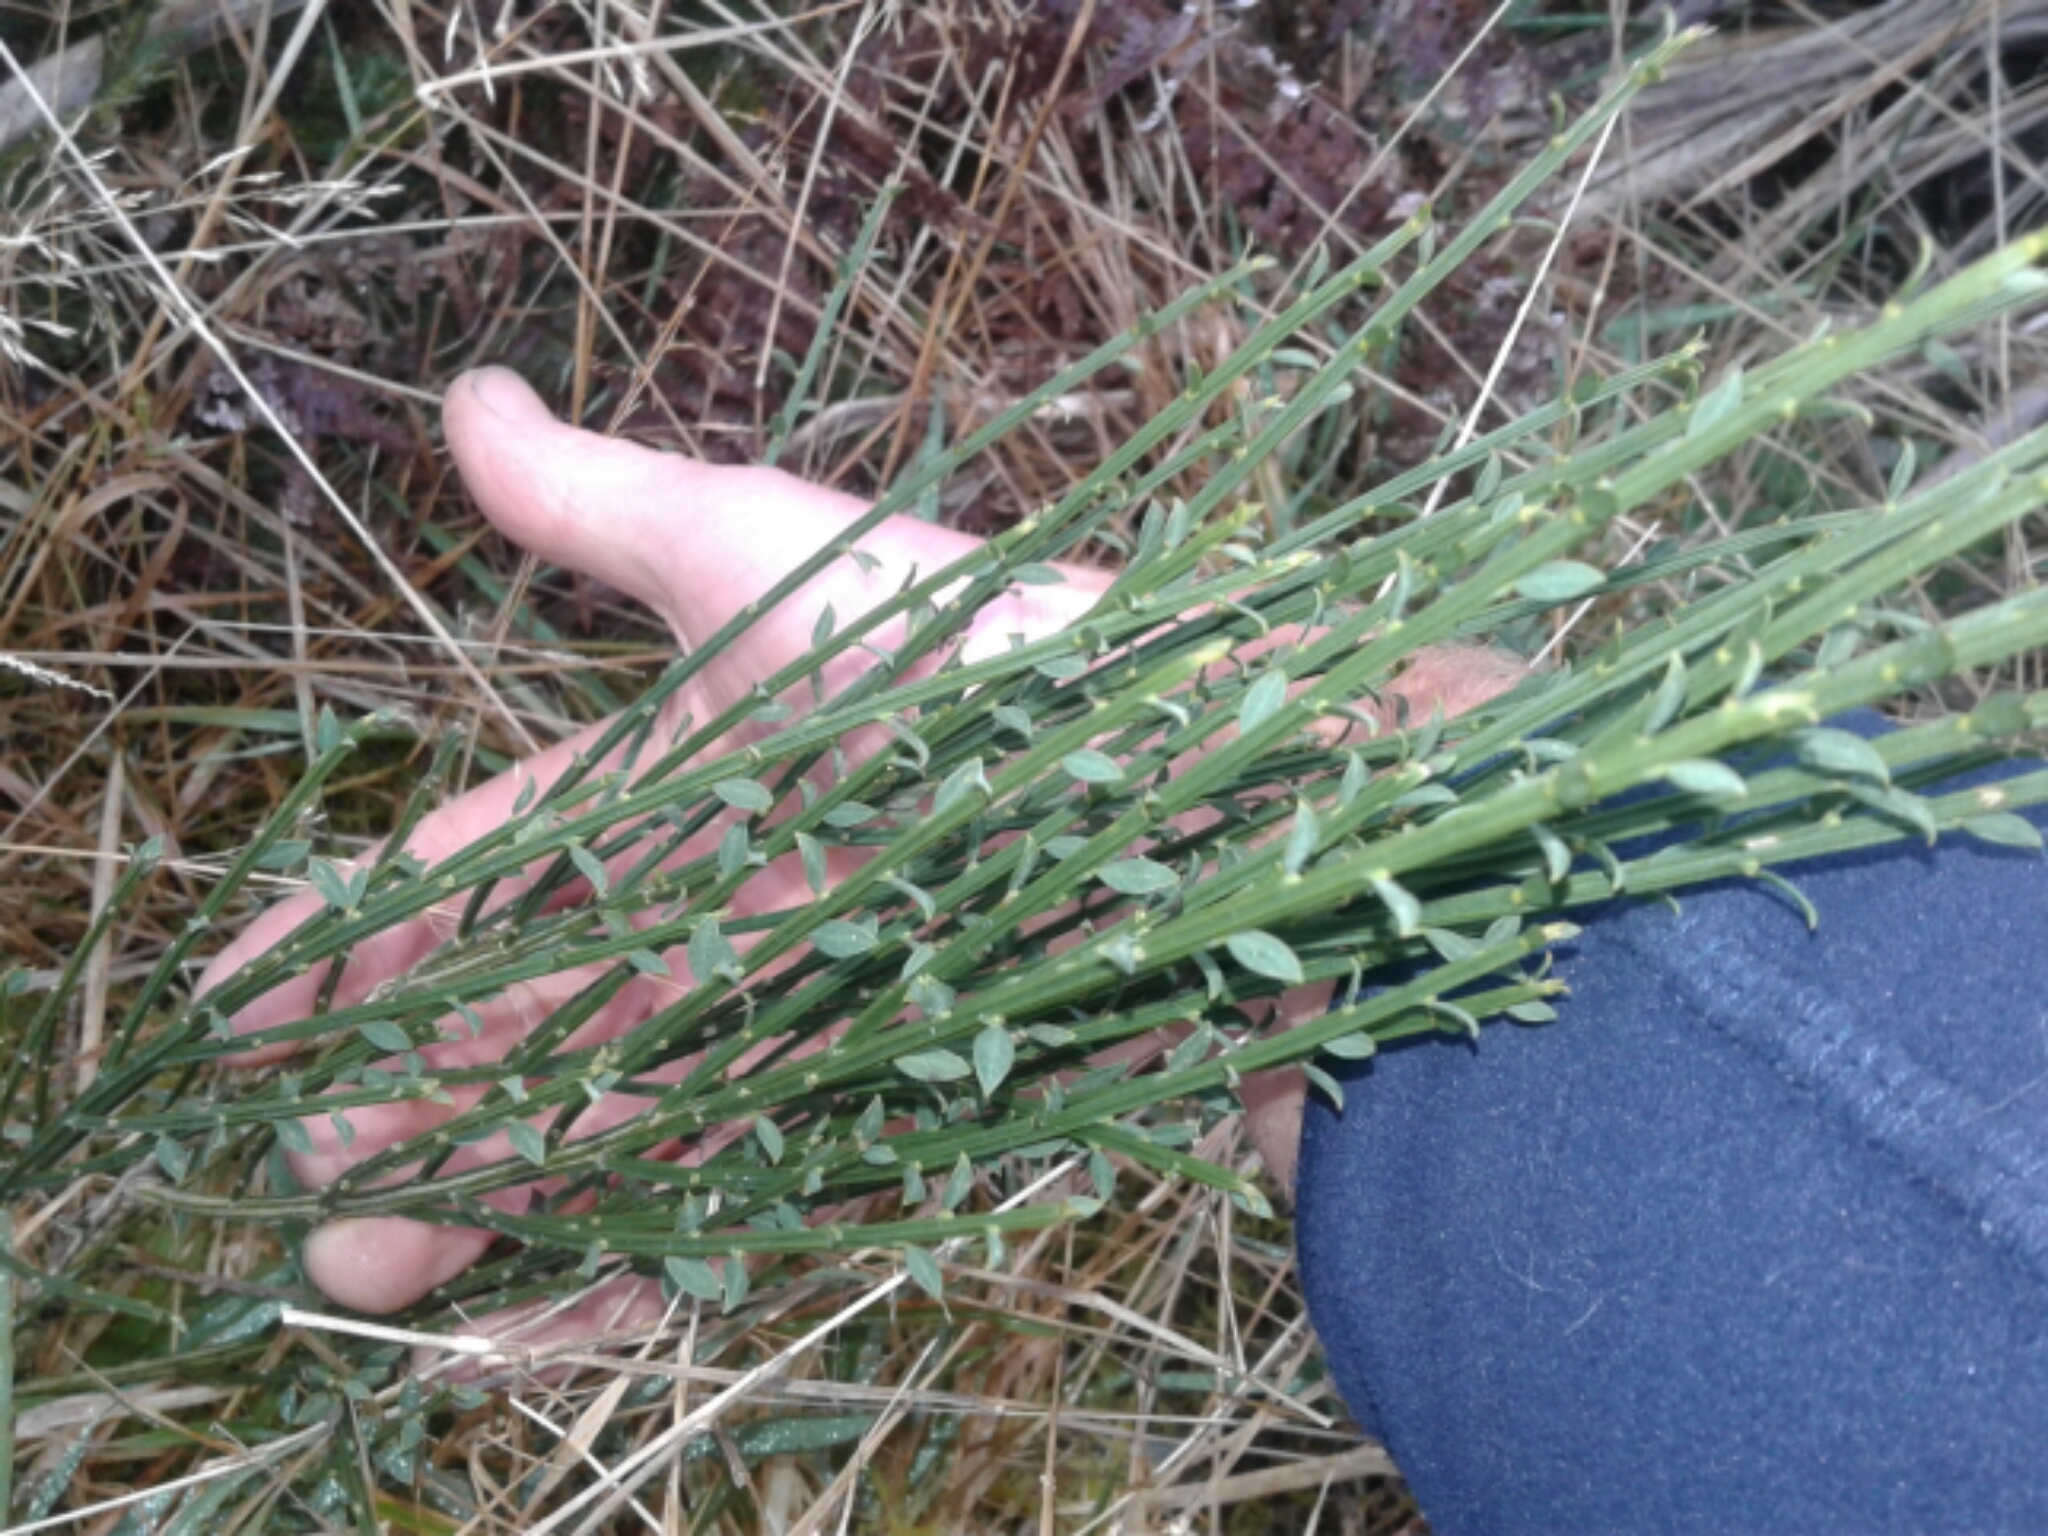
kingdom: Plantae
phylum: Tracheophyta
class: Magnoliopsida
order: Fabales
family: Fabaceae
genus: Cytisus
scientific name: Cytisus scoparius
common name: Scotch broom
